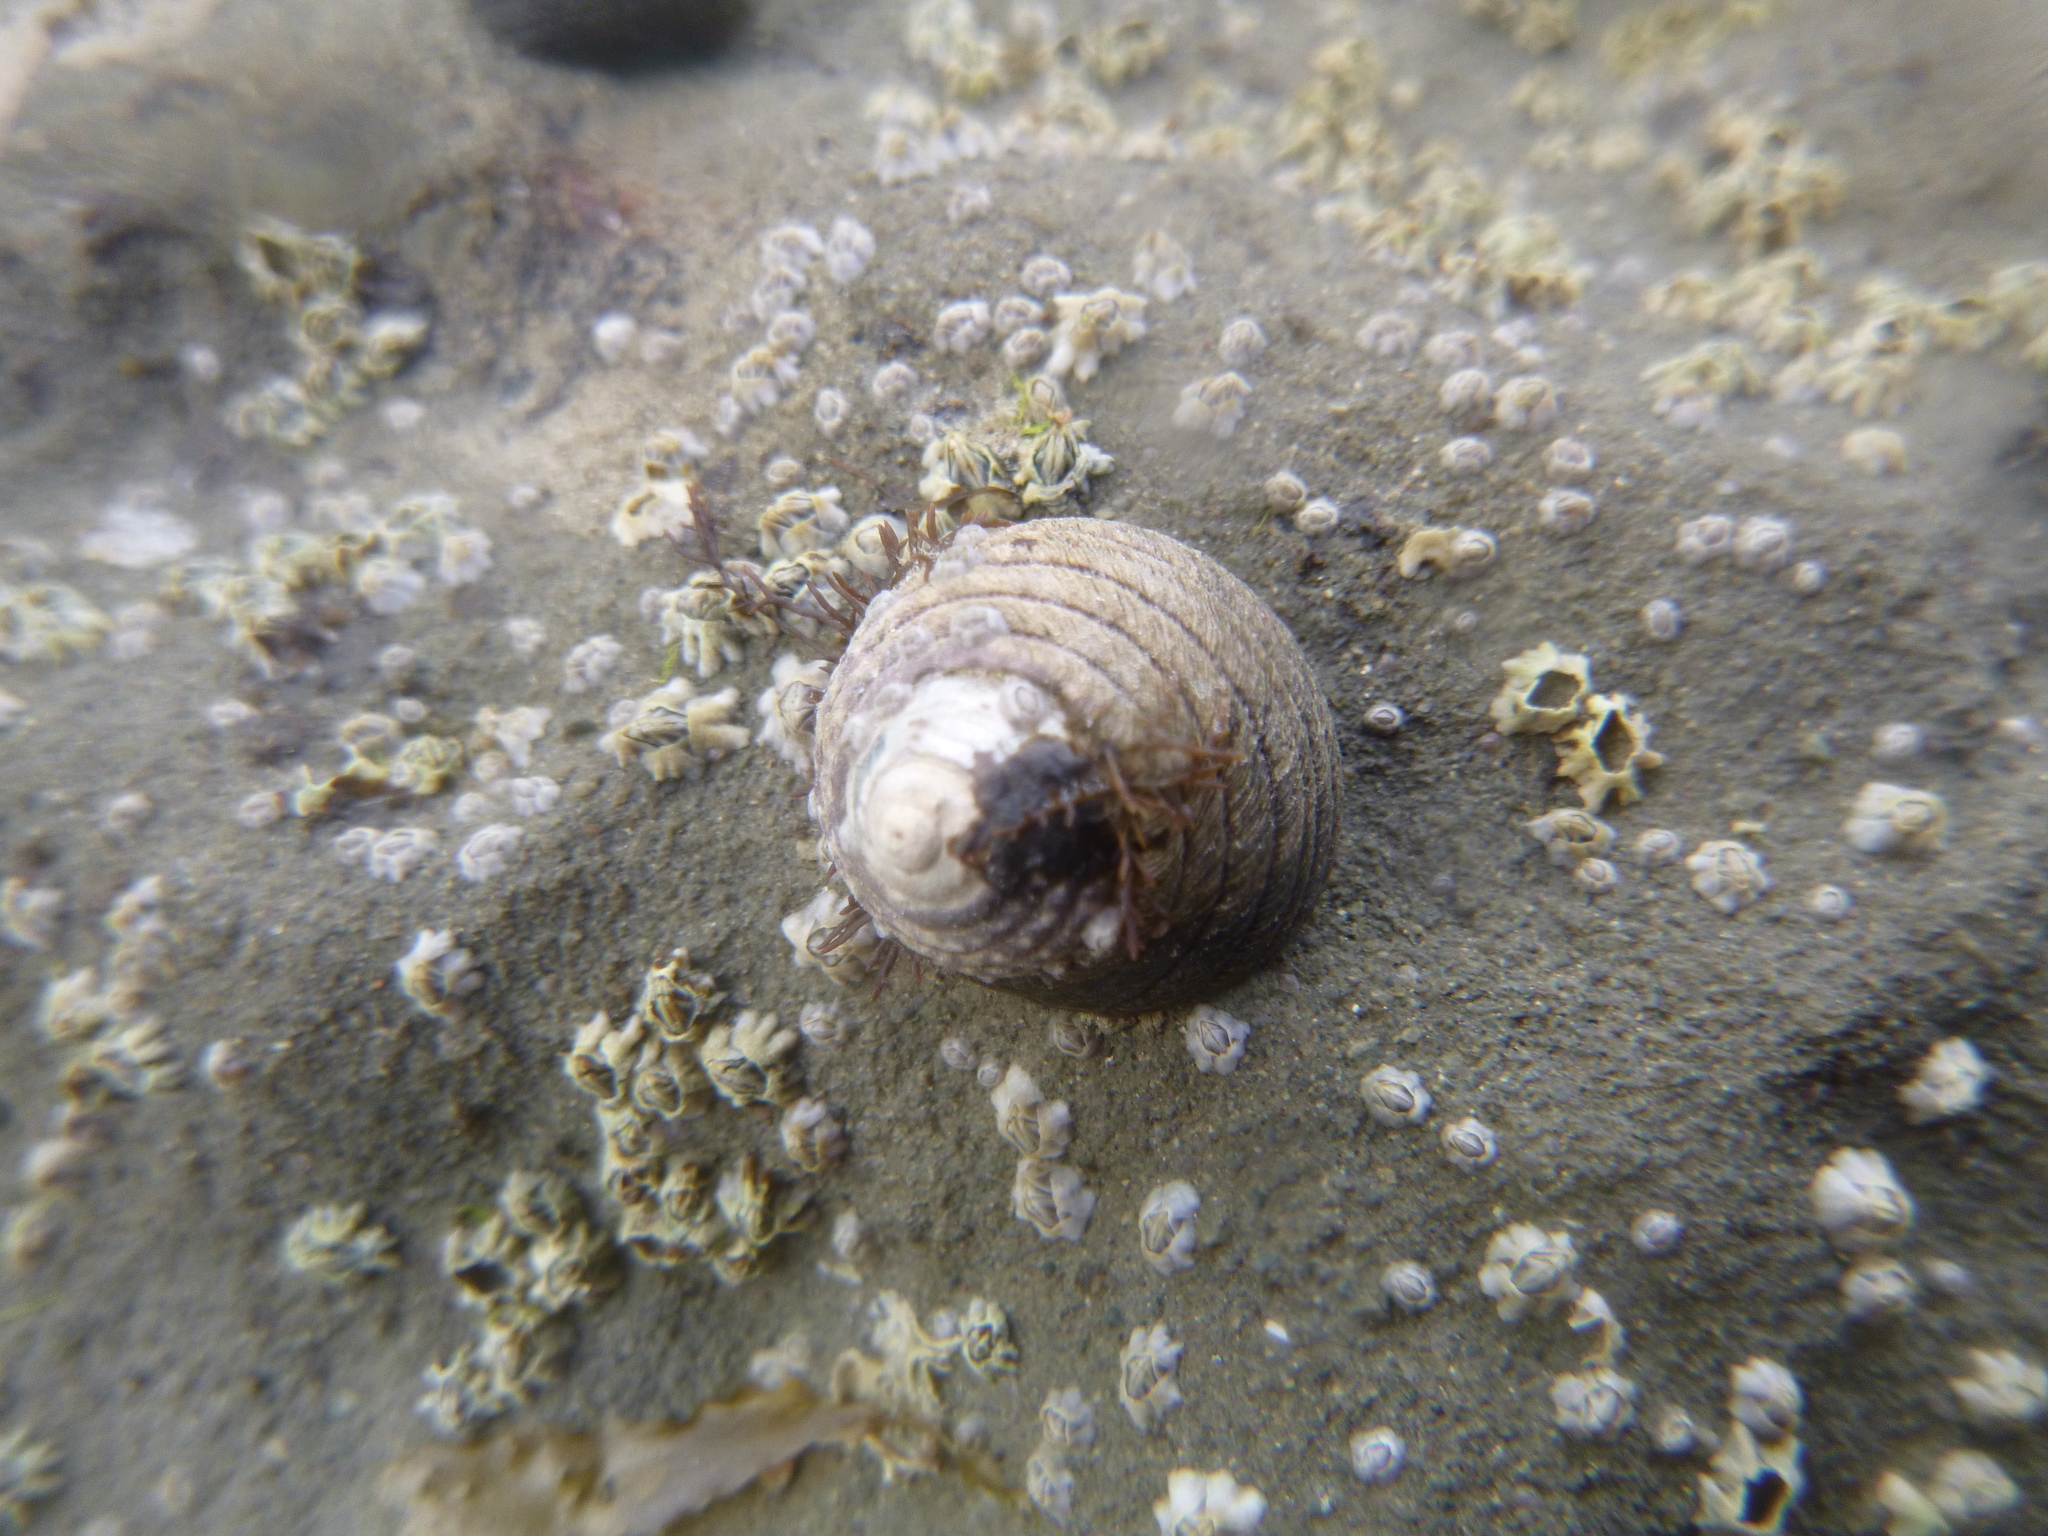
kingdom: Animalia
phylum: Mollusca
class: Gastropoda
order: Trochida
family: Trochidae
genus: Diloma
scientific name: Diloma aethiops
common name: Scorched monodont
